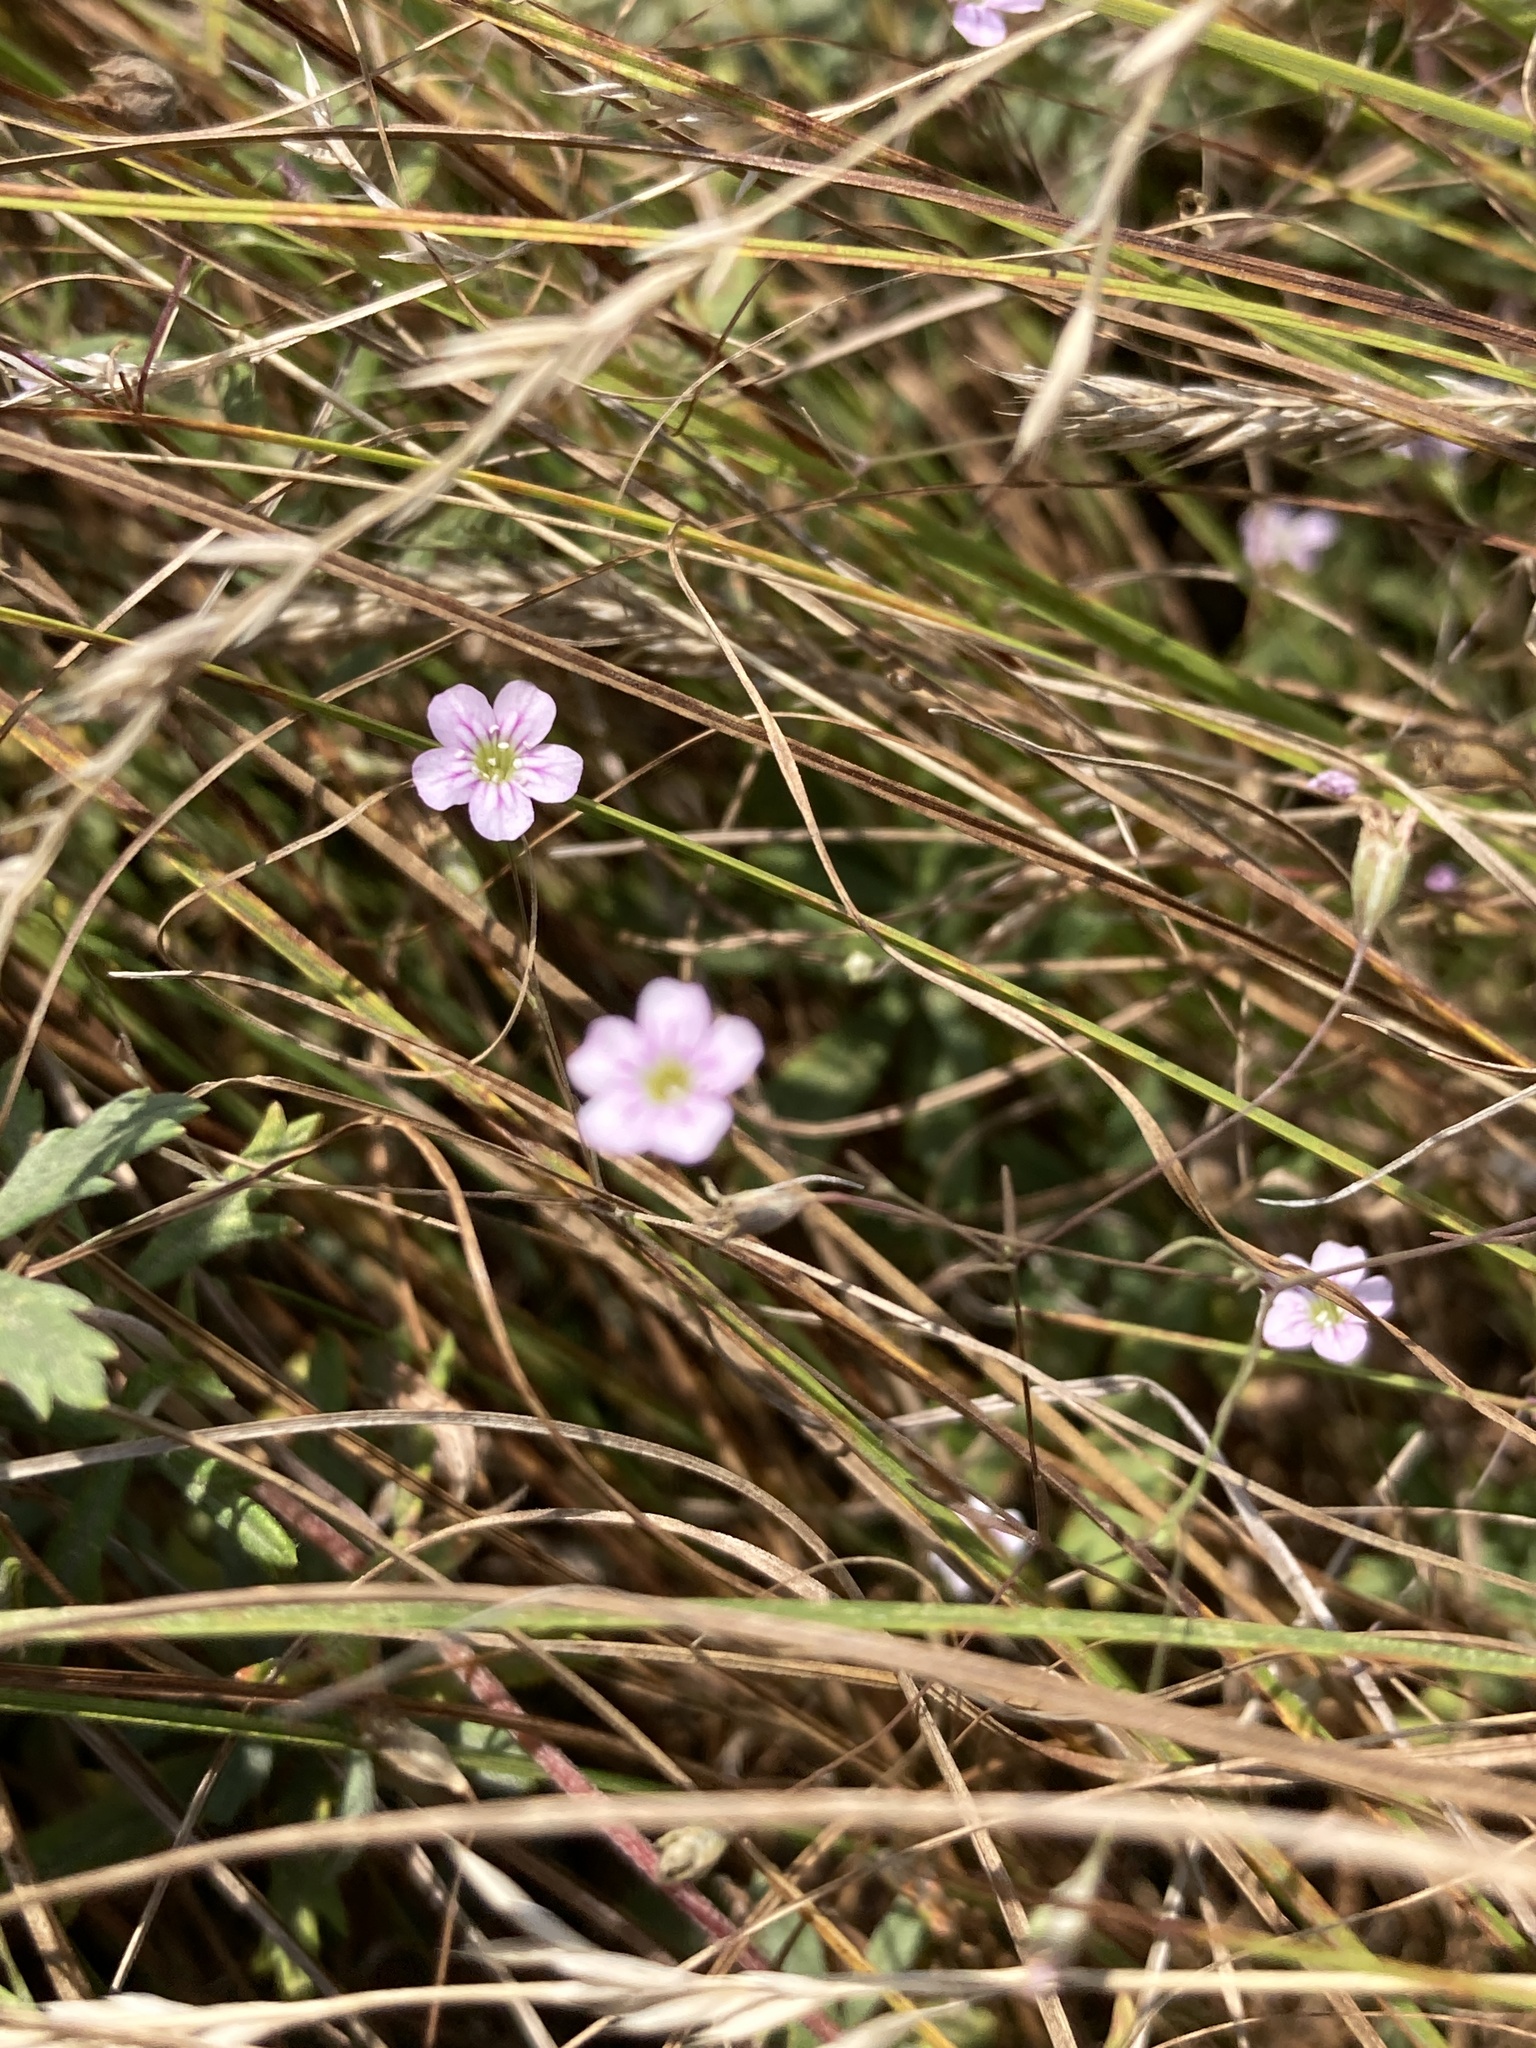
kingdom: Plantae
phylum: Tracheophyta
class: Magnoliopsida
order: Caryophyllales
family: Caryophyllaceae
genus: Psammophiliella
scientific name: Psammophiliella muralis
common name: Cushion baby's-breath
